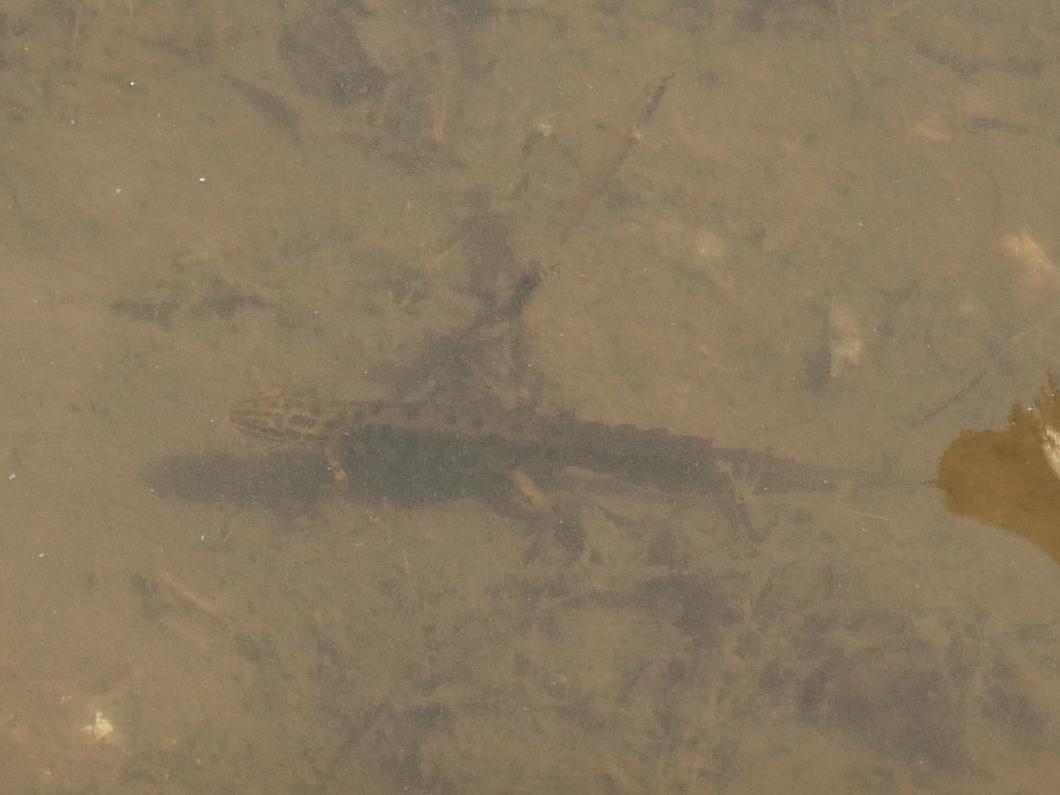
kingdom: Animalia
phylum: Chordata
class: Amphibia
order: Caudata
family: Salamandridae
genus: Lissotriton
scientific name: Lissotriton vulgaris
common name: Smooth newt
